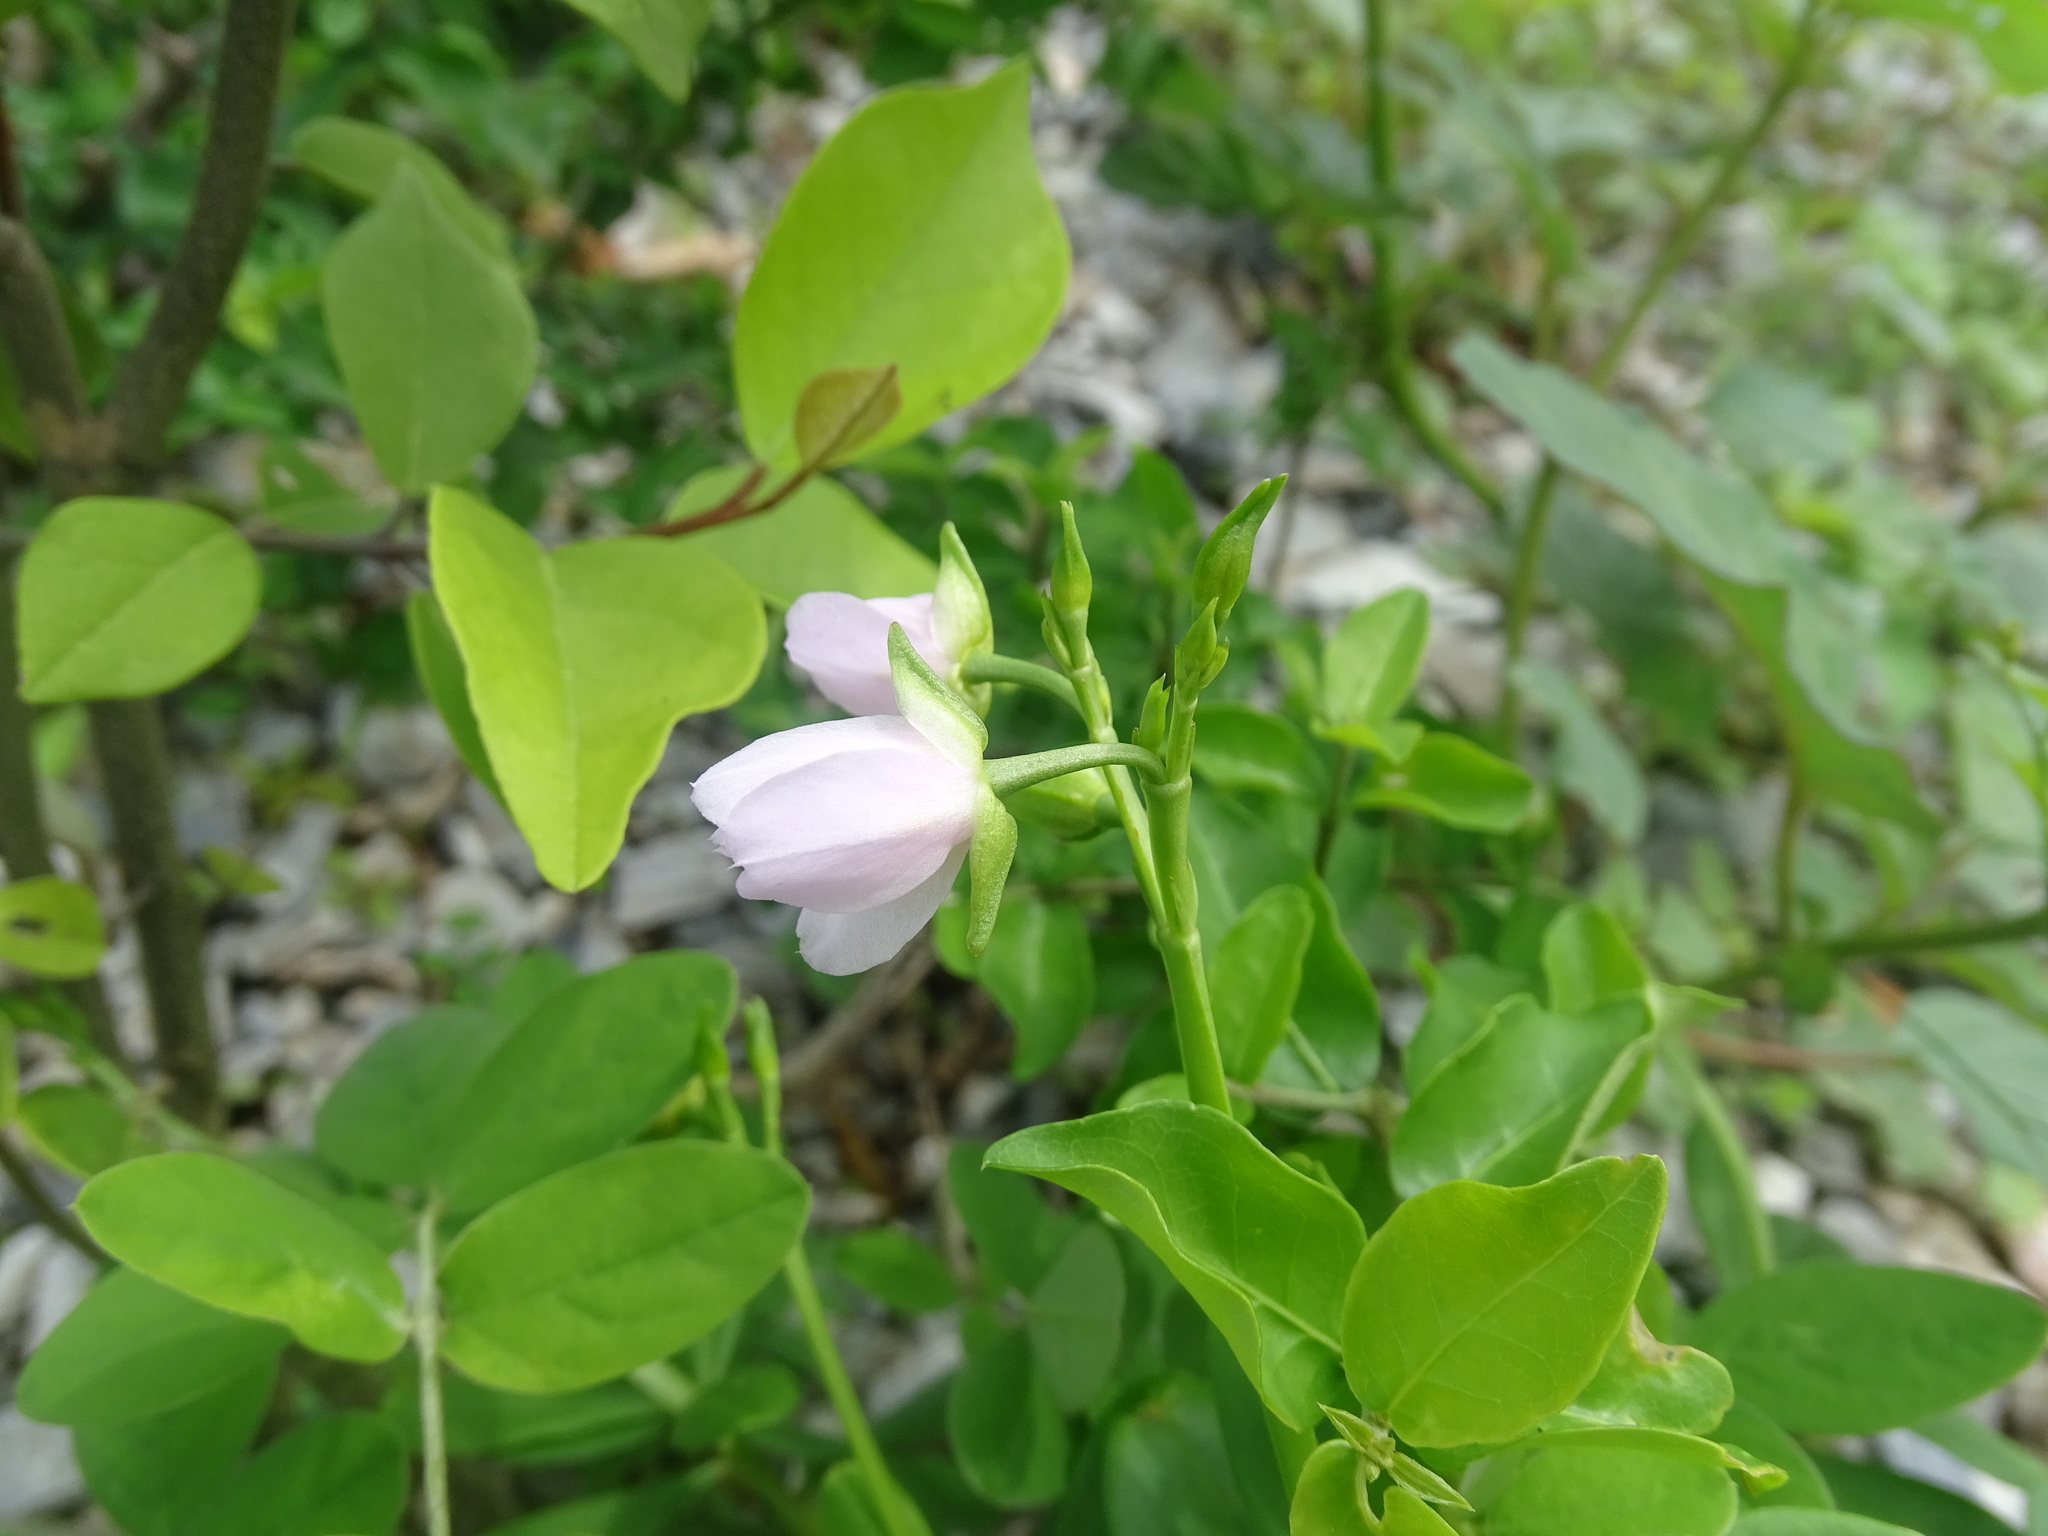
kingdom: Plantae
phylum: Tracheophyta
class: Magnoliopsida
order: Caryophyllales
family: Talinaceae
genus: Talinum
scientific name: Talinum fruticosum
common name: Verdolaga-francesa
